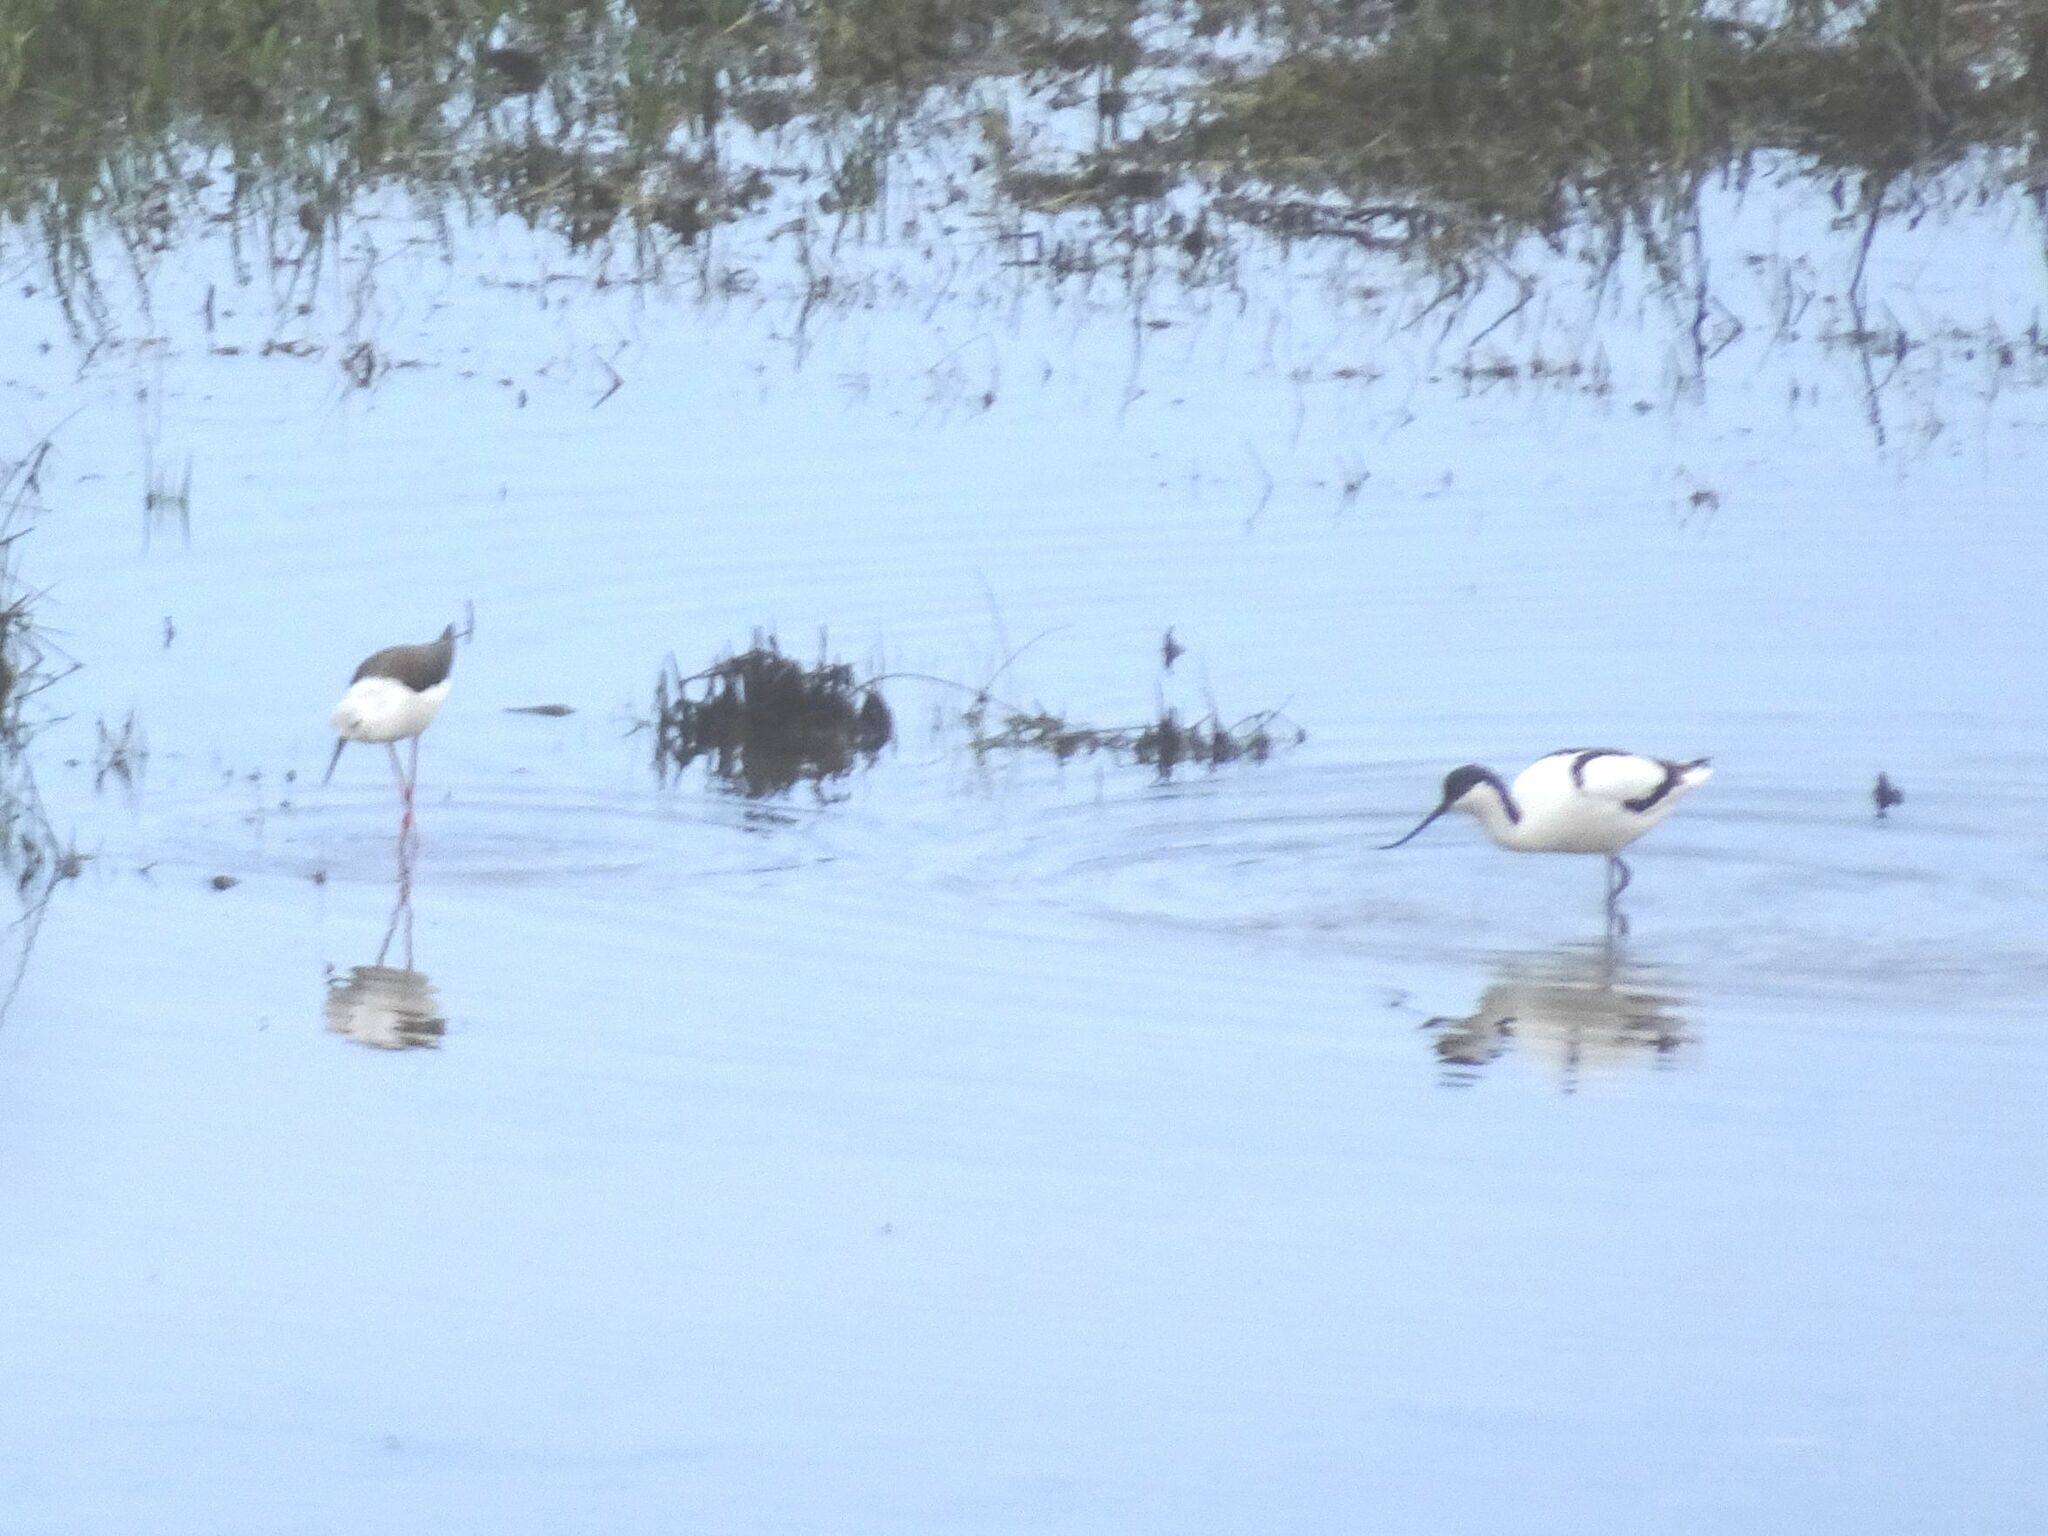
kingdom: Animalia
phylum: Chordata
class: Aves
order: Charadriiformes
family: Recurvirostridae
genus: Recurvirostra
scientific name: Recurvirostra avosetta
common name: Pied avocet
